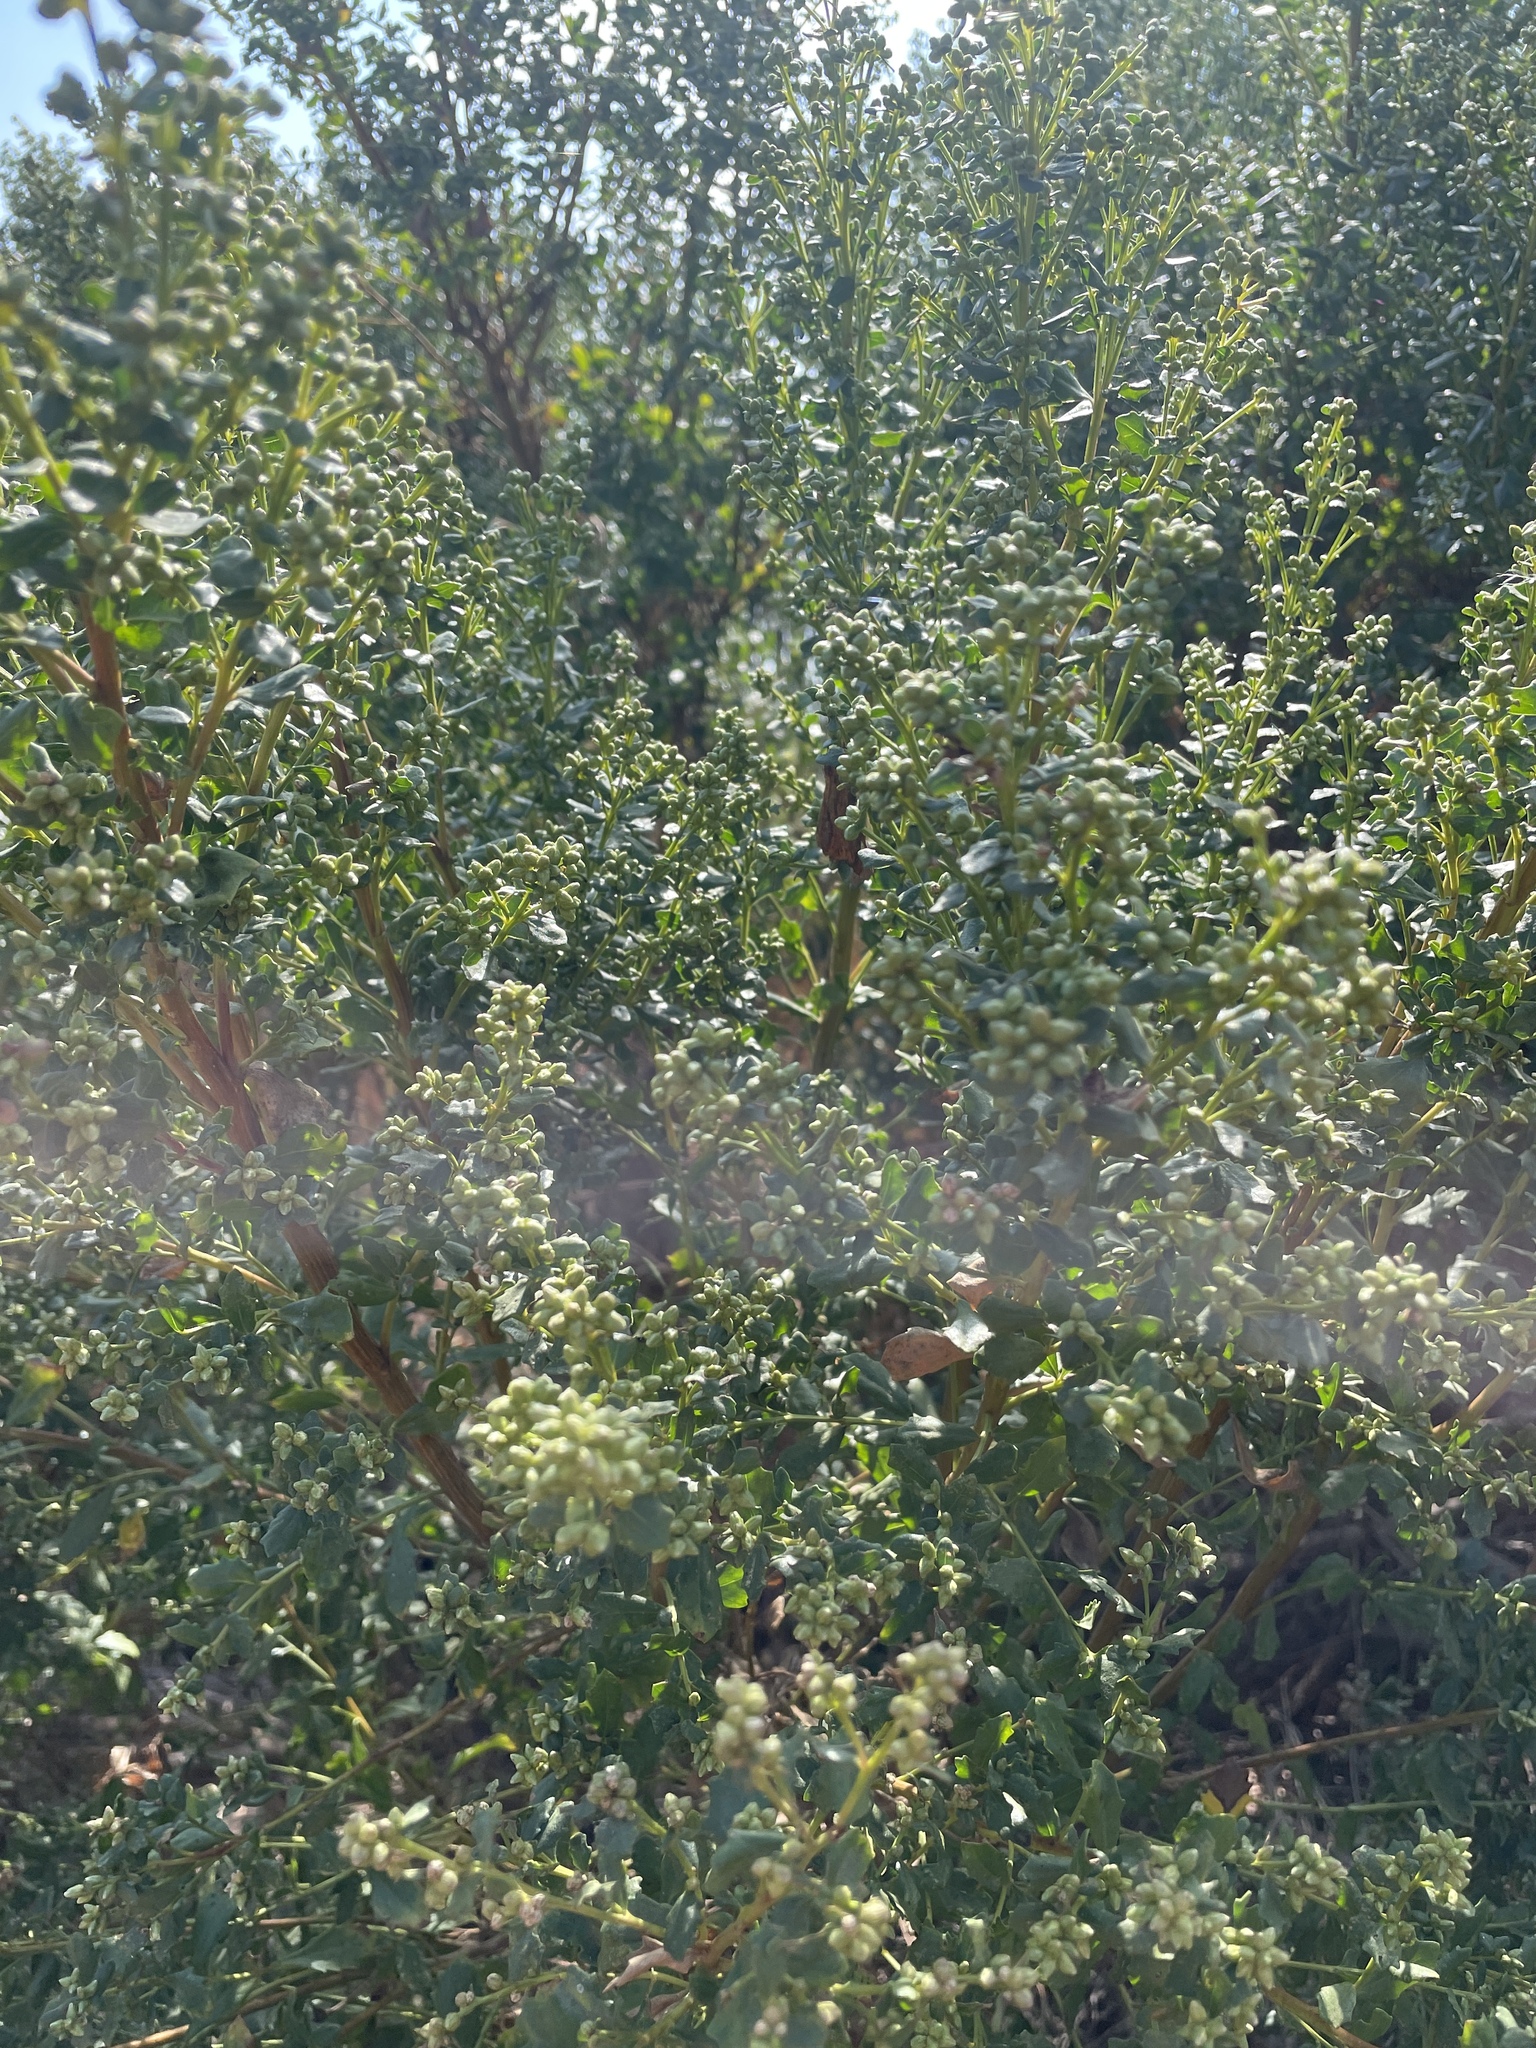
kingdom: Plantae
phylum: Tracheophyta
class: Magnoliopsida
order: Asterales
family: Asteraceae
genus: Baccharis
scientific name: Baccharis pilularis
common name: Coyotebrush
